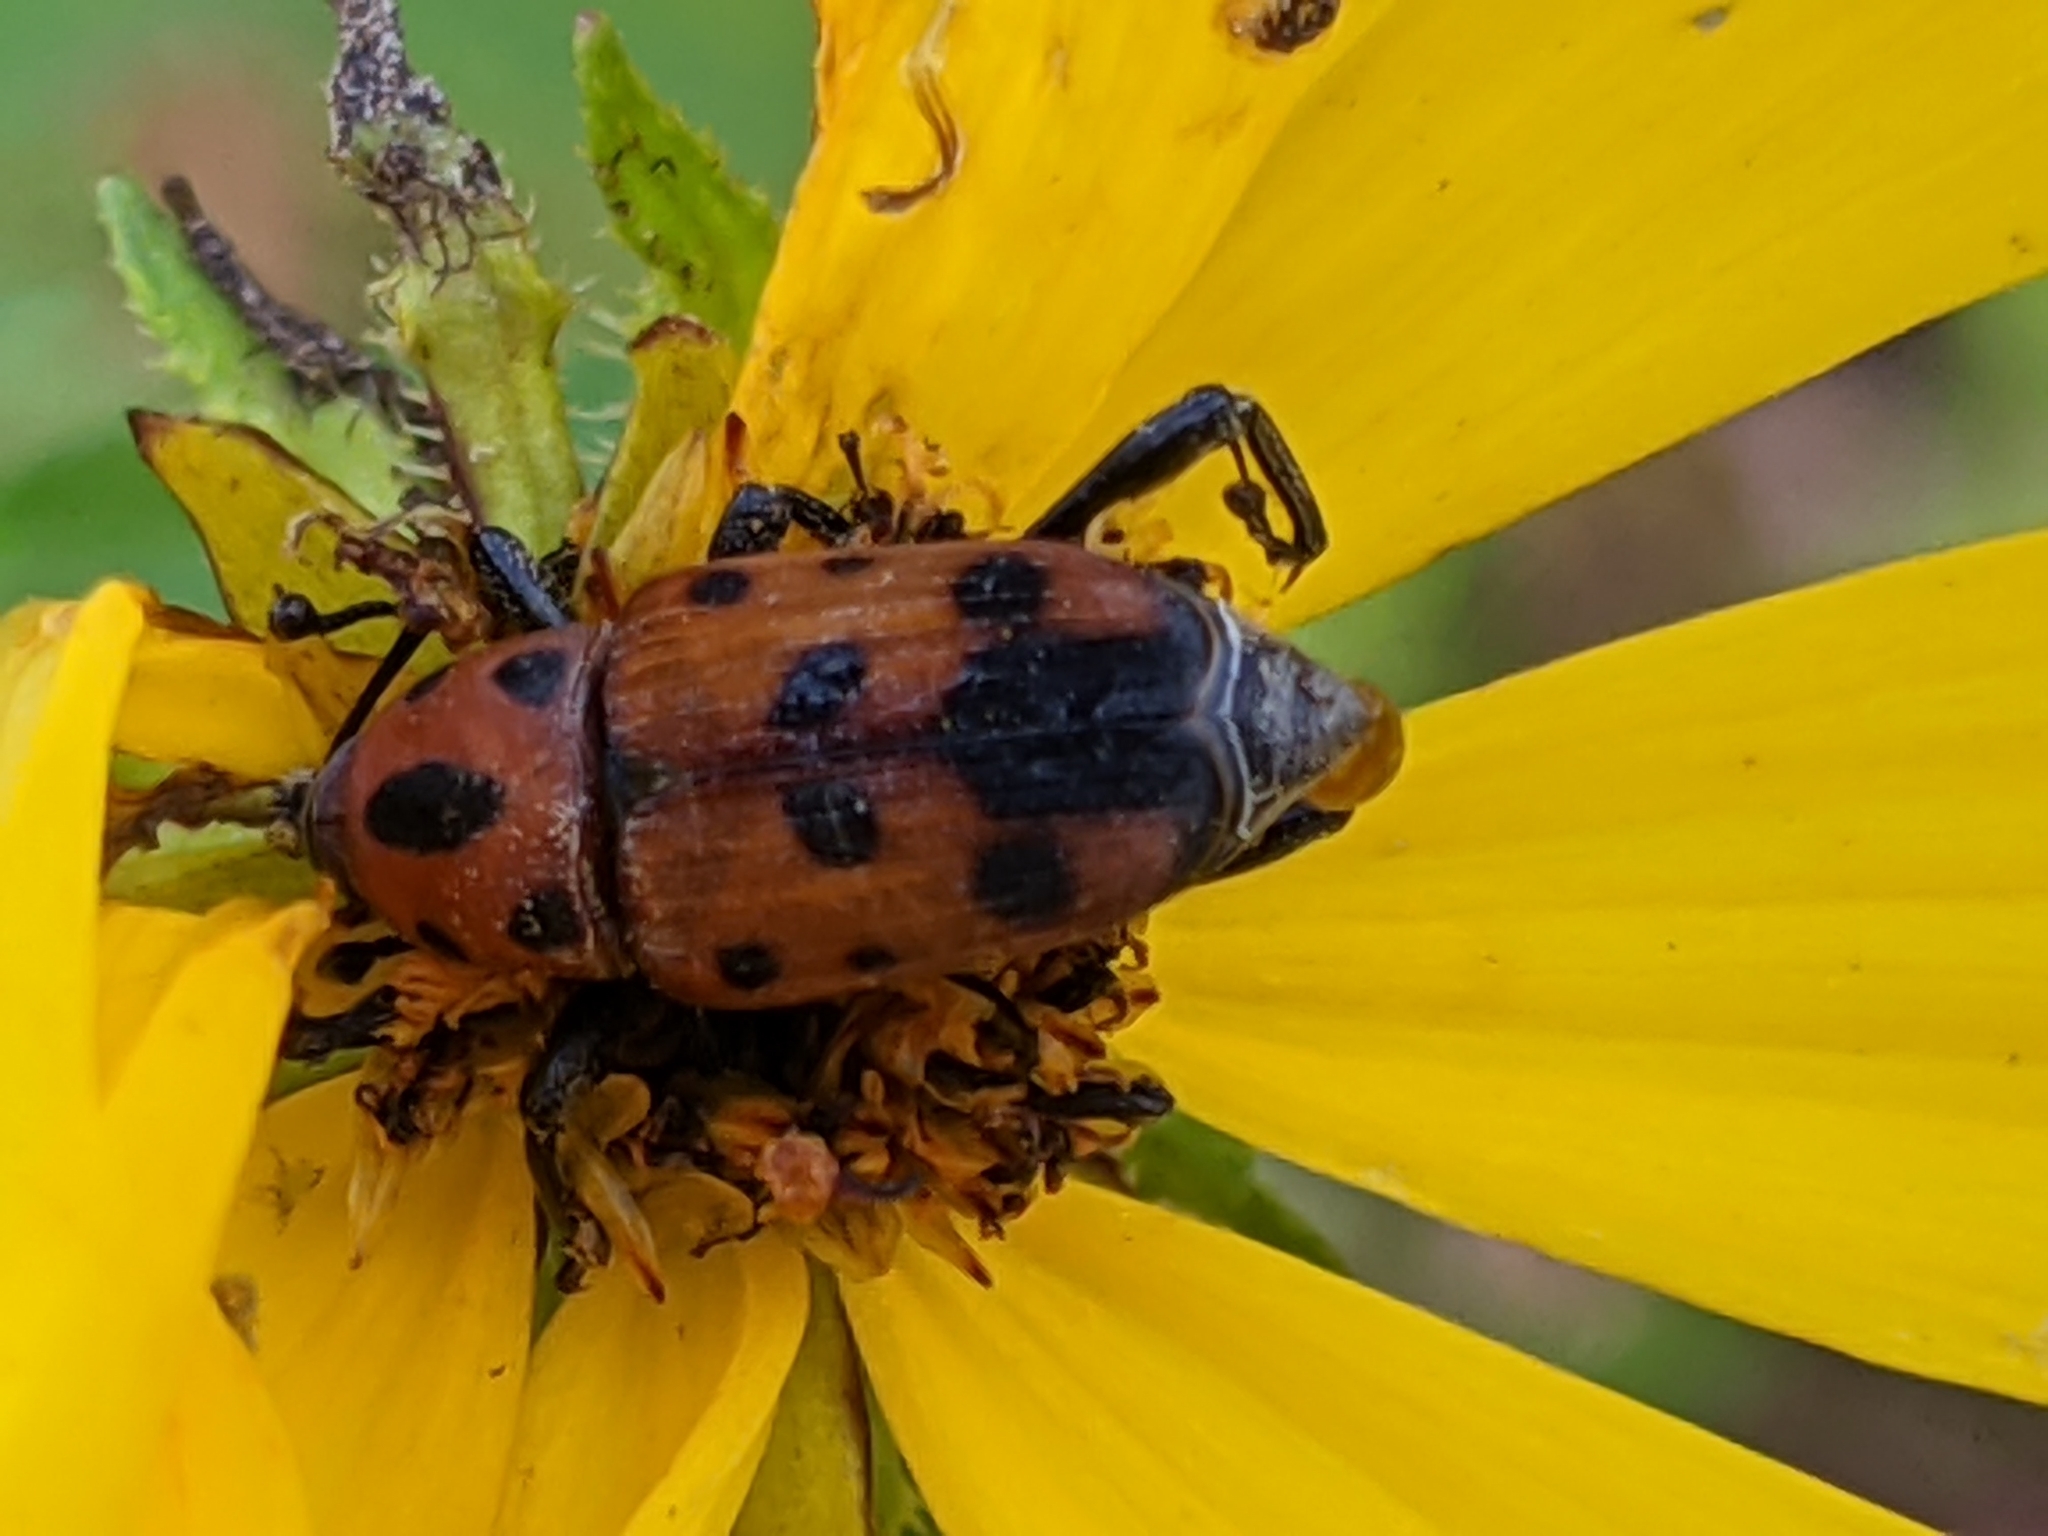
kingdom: Animalia
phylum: Arthropoda
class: Insecta
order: Coleoptera
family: Dryophthoridae
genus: Rhodobaenus
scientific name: Rhodobaenus quinquepunctatus
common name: Cocklebur weevil
